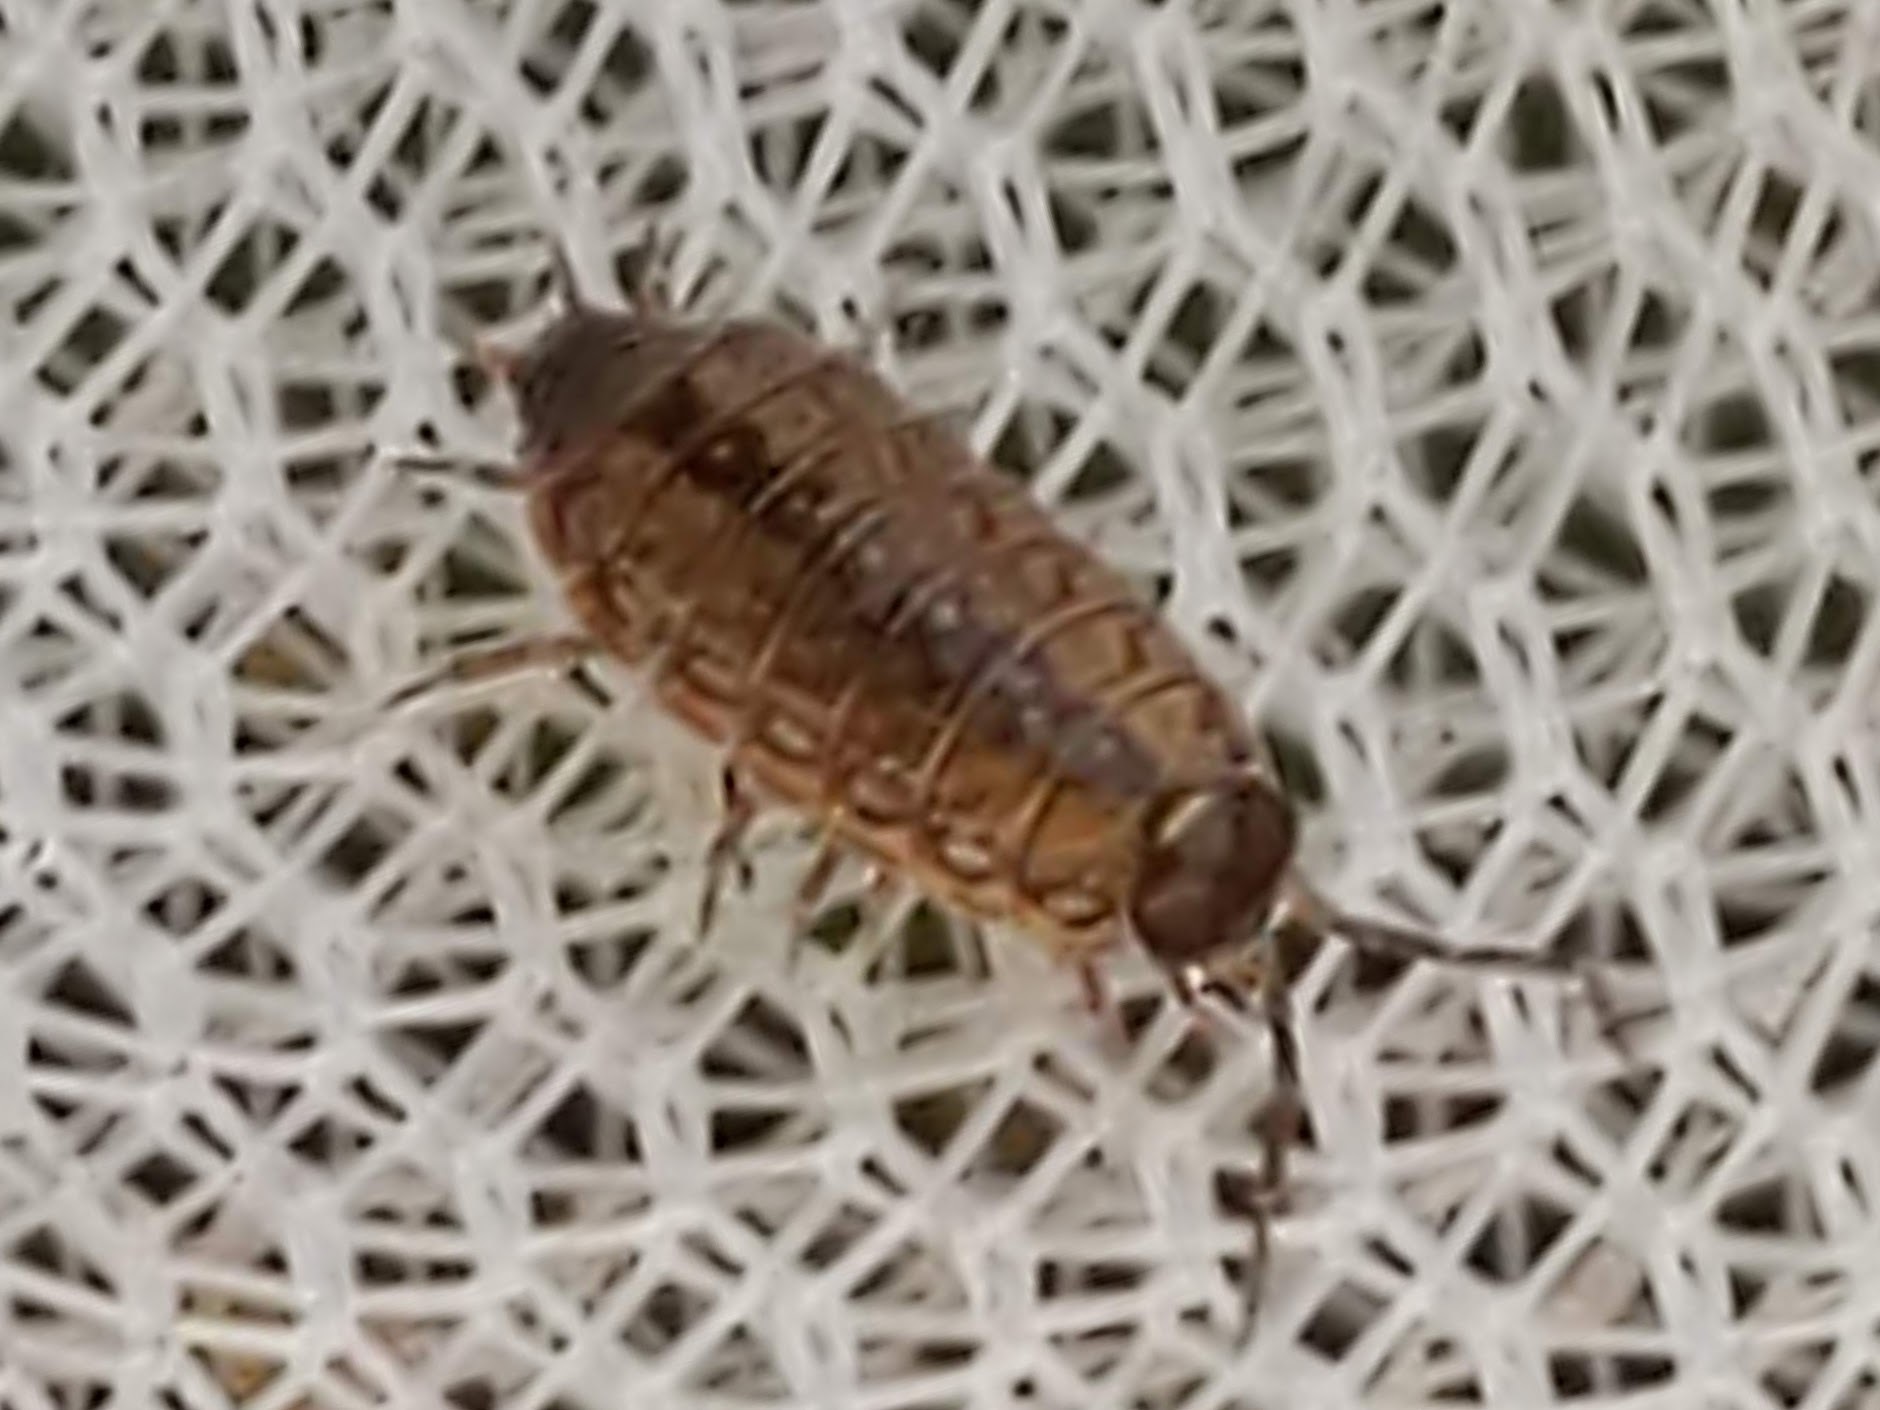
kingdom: Animalia
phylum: Arthropoda
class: Malacostraca
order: Isopoda
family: Philosciidae
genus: Philoscia
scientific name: Philoscia muscorum
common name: Common striped woodlouse
